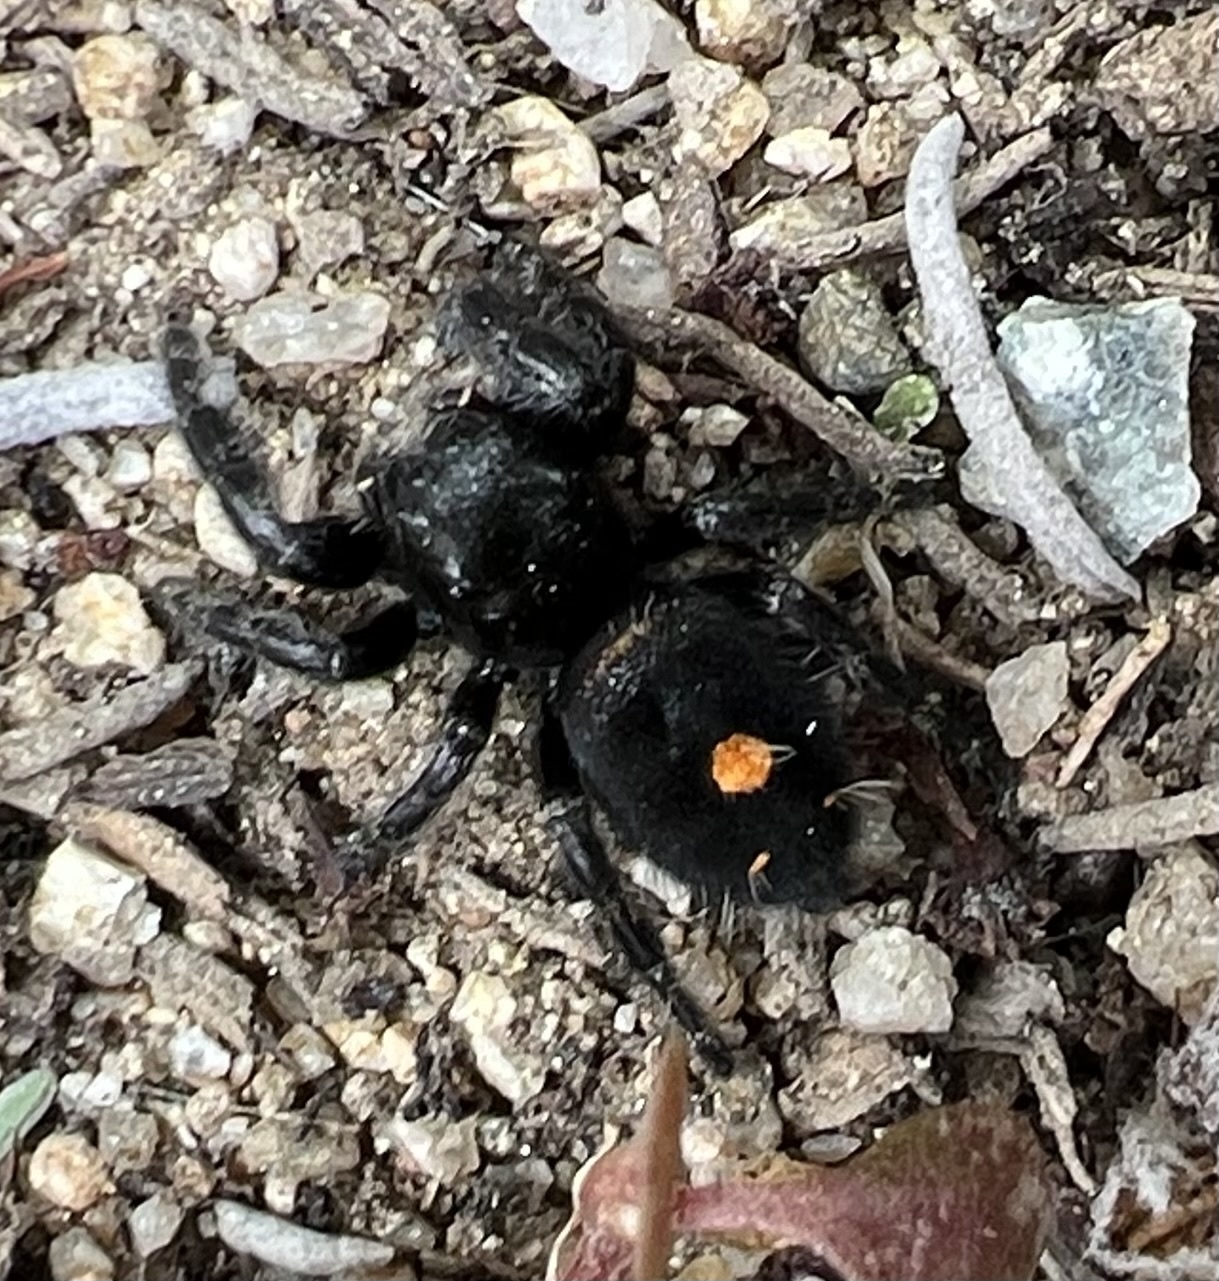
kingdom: Animalia
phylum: Arthropoda
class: Arachnida
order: Araneae
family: Salticidae
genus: Phidippus
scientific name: Phidippus audax
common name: Bold jumper
